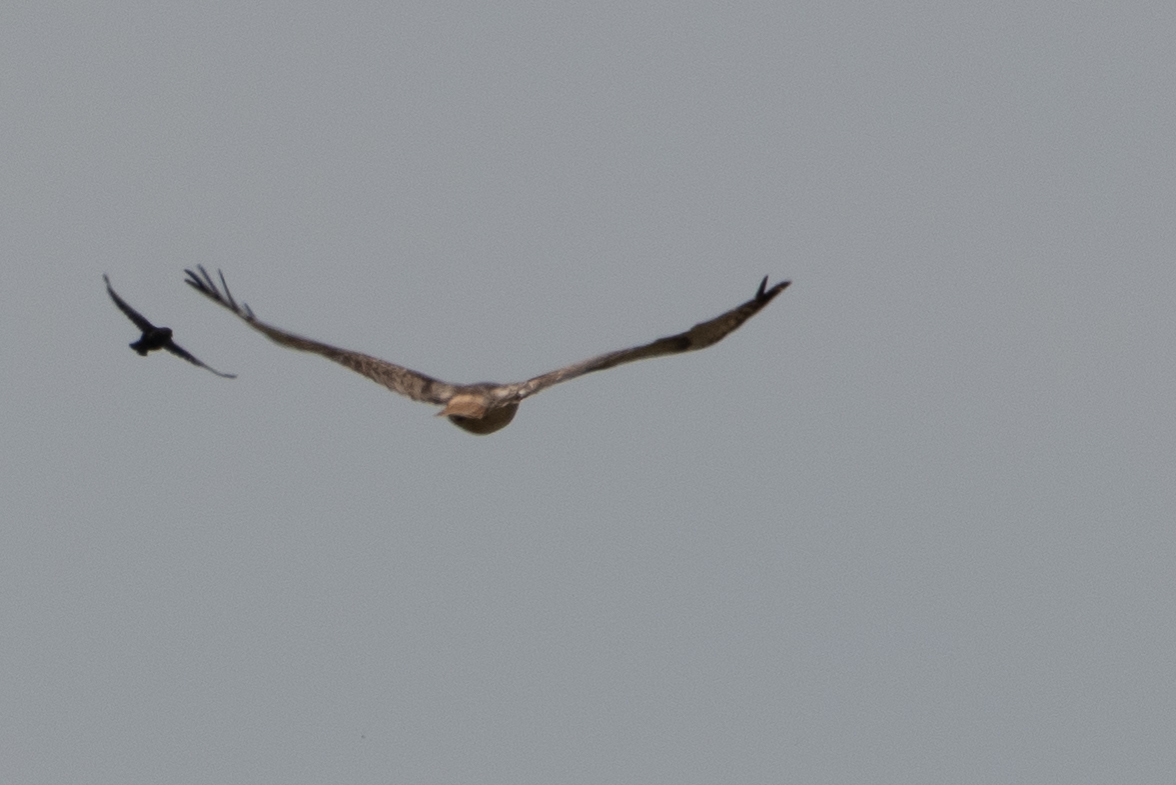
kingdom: Animalia
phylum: Chordata
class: Aves
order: Accipitriformes
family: Accipitridae
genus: Buteo
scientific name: Buteo jamaicensis
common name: Red-tailed hawk
